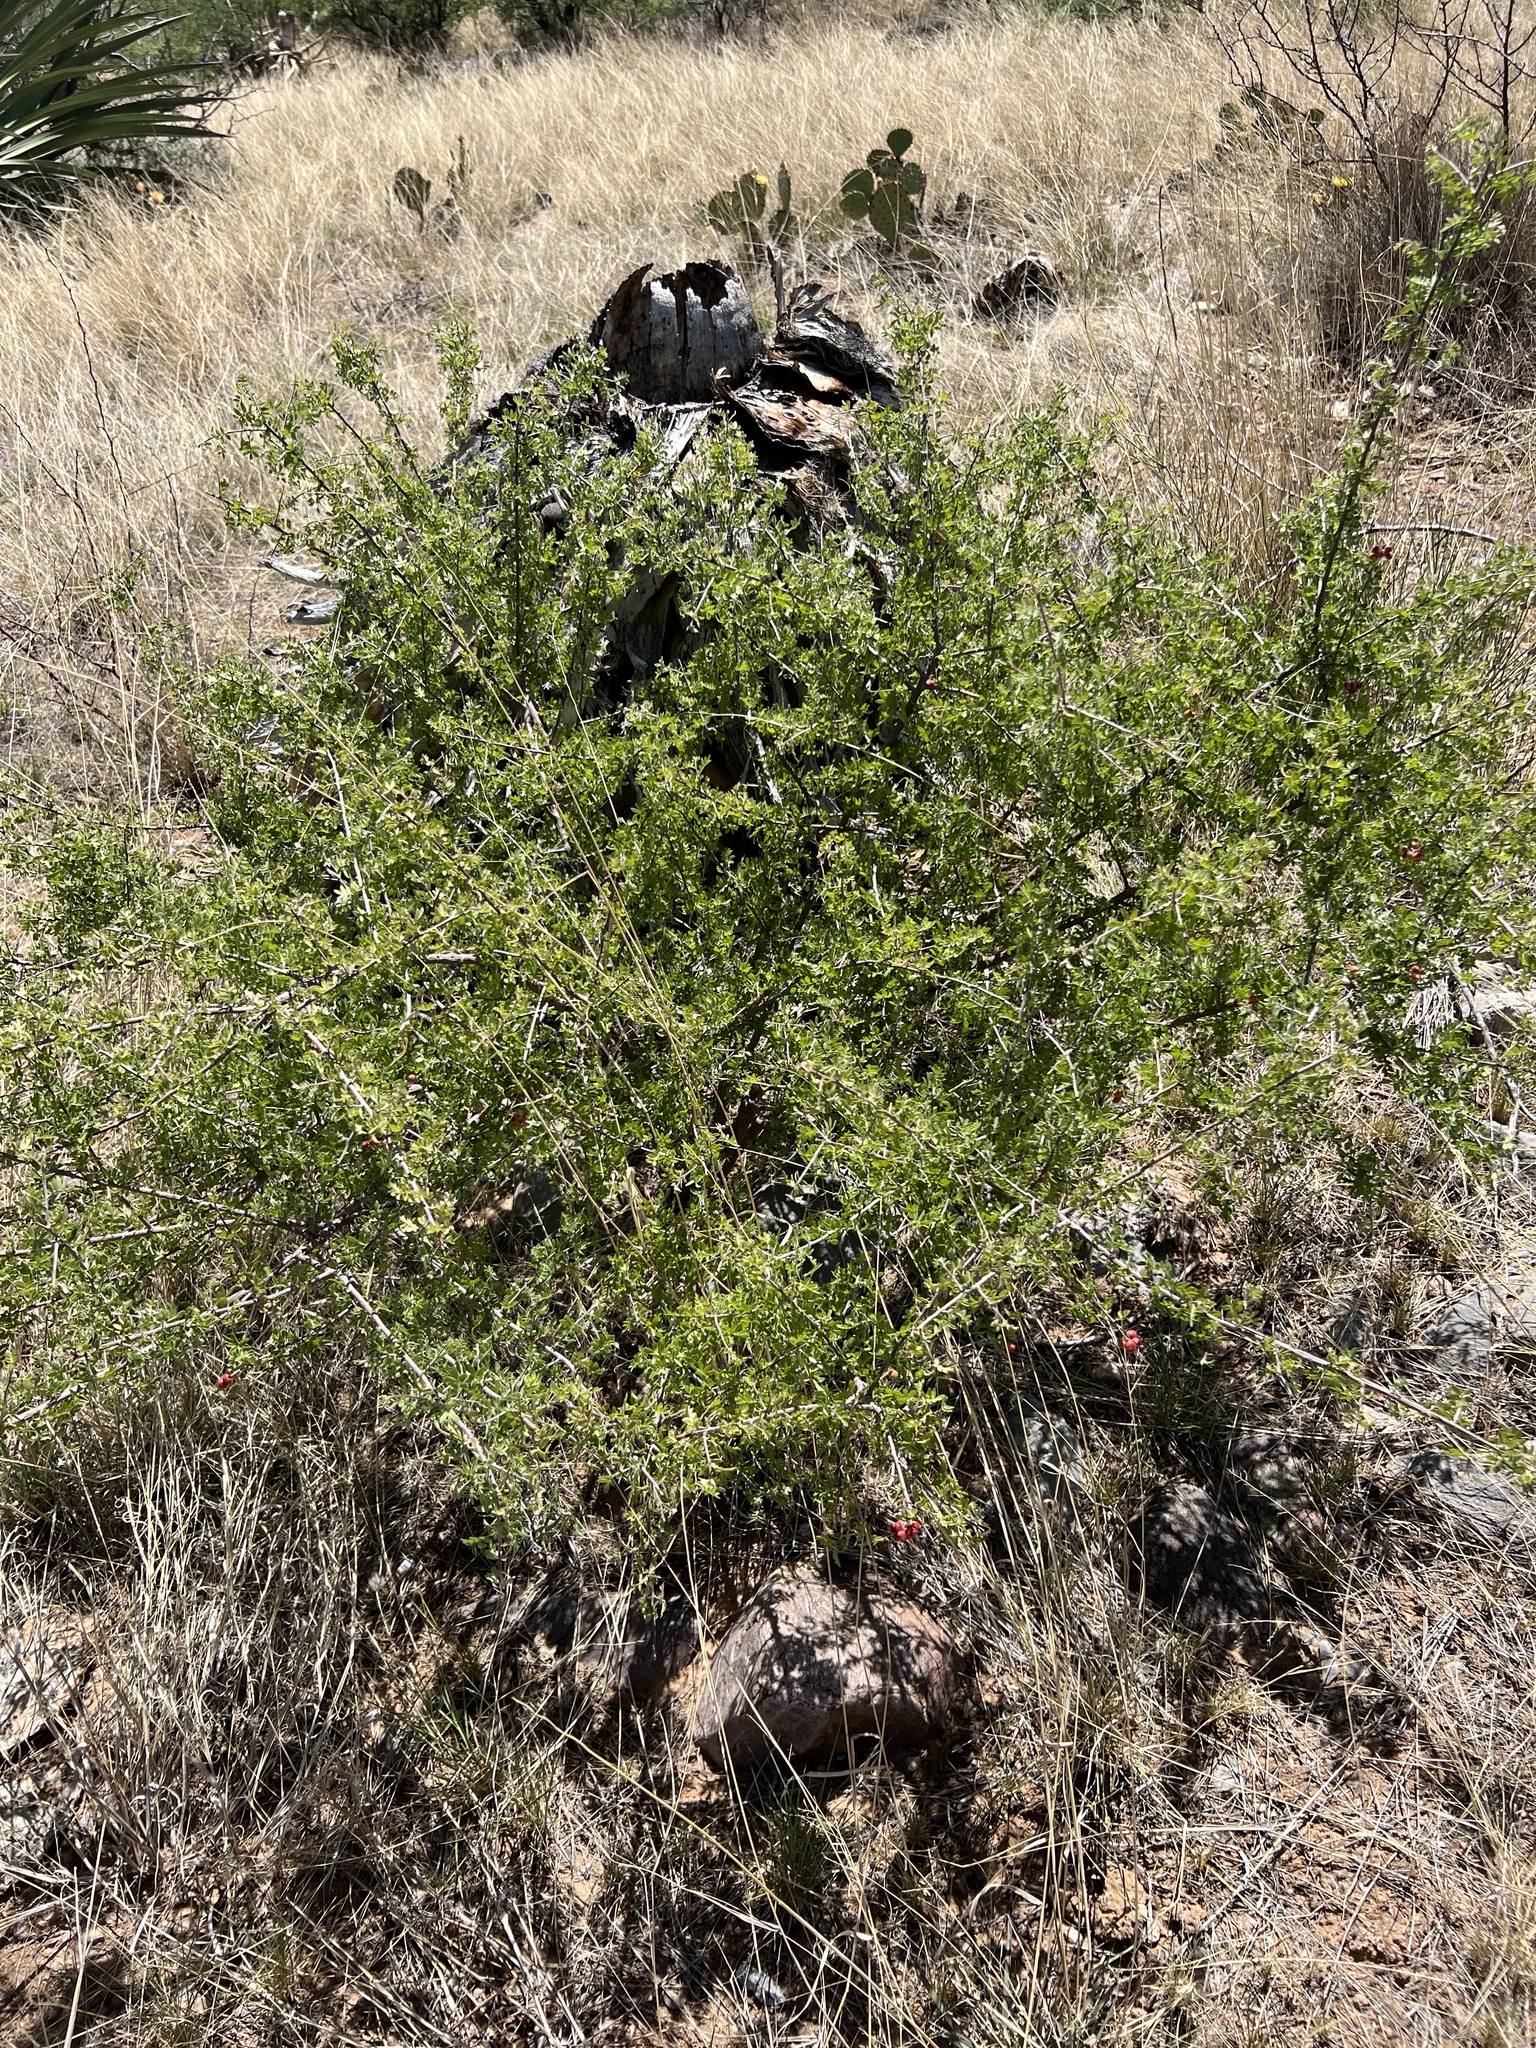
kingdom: Plantae
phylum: Tracheophyta
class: Magnoliopsida
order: Sapindales
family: Anacardiaceae
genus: Rhus
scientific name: Rhus microphylla
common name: Desert sumac
